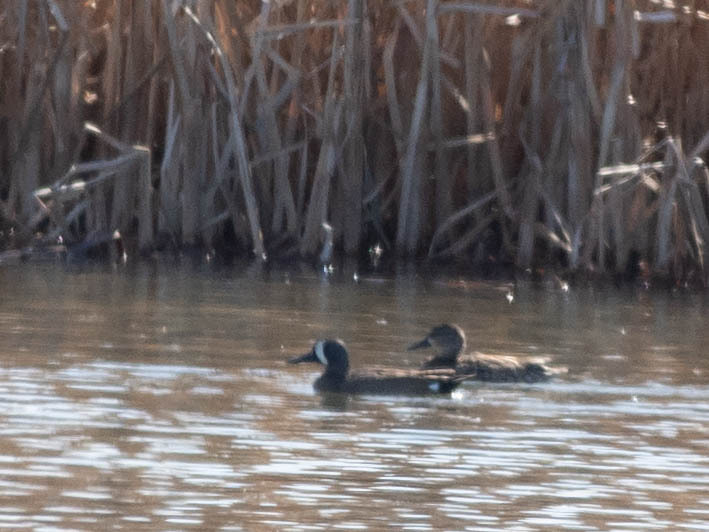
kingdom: Animalia
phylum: Chordata
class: Aves
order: Anseriformes
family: Anatidae
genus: Spatula
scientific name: Spatula discors
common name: Blue-winged teal
